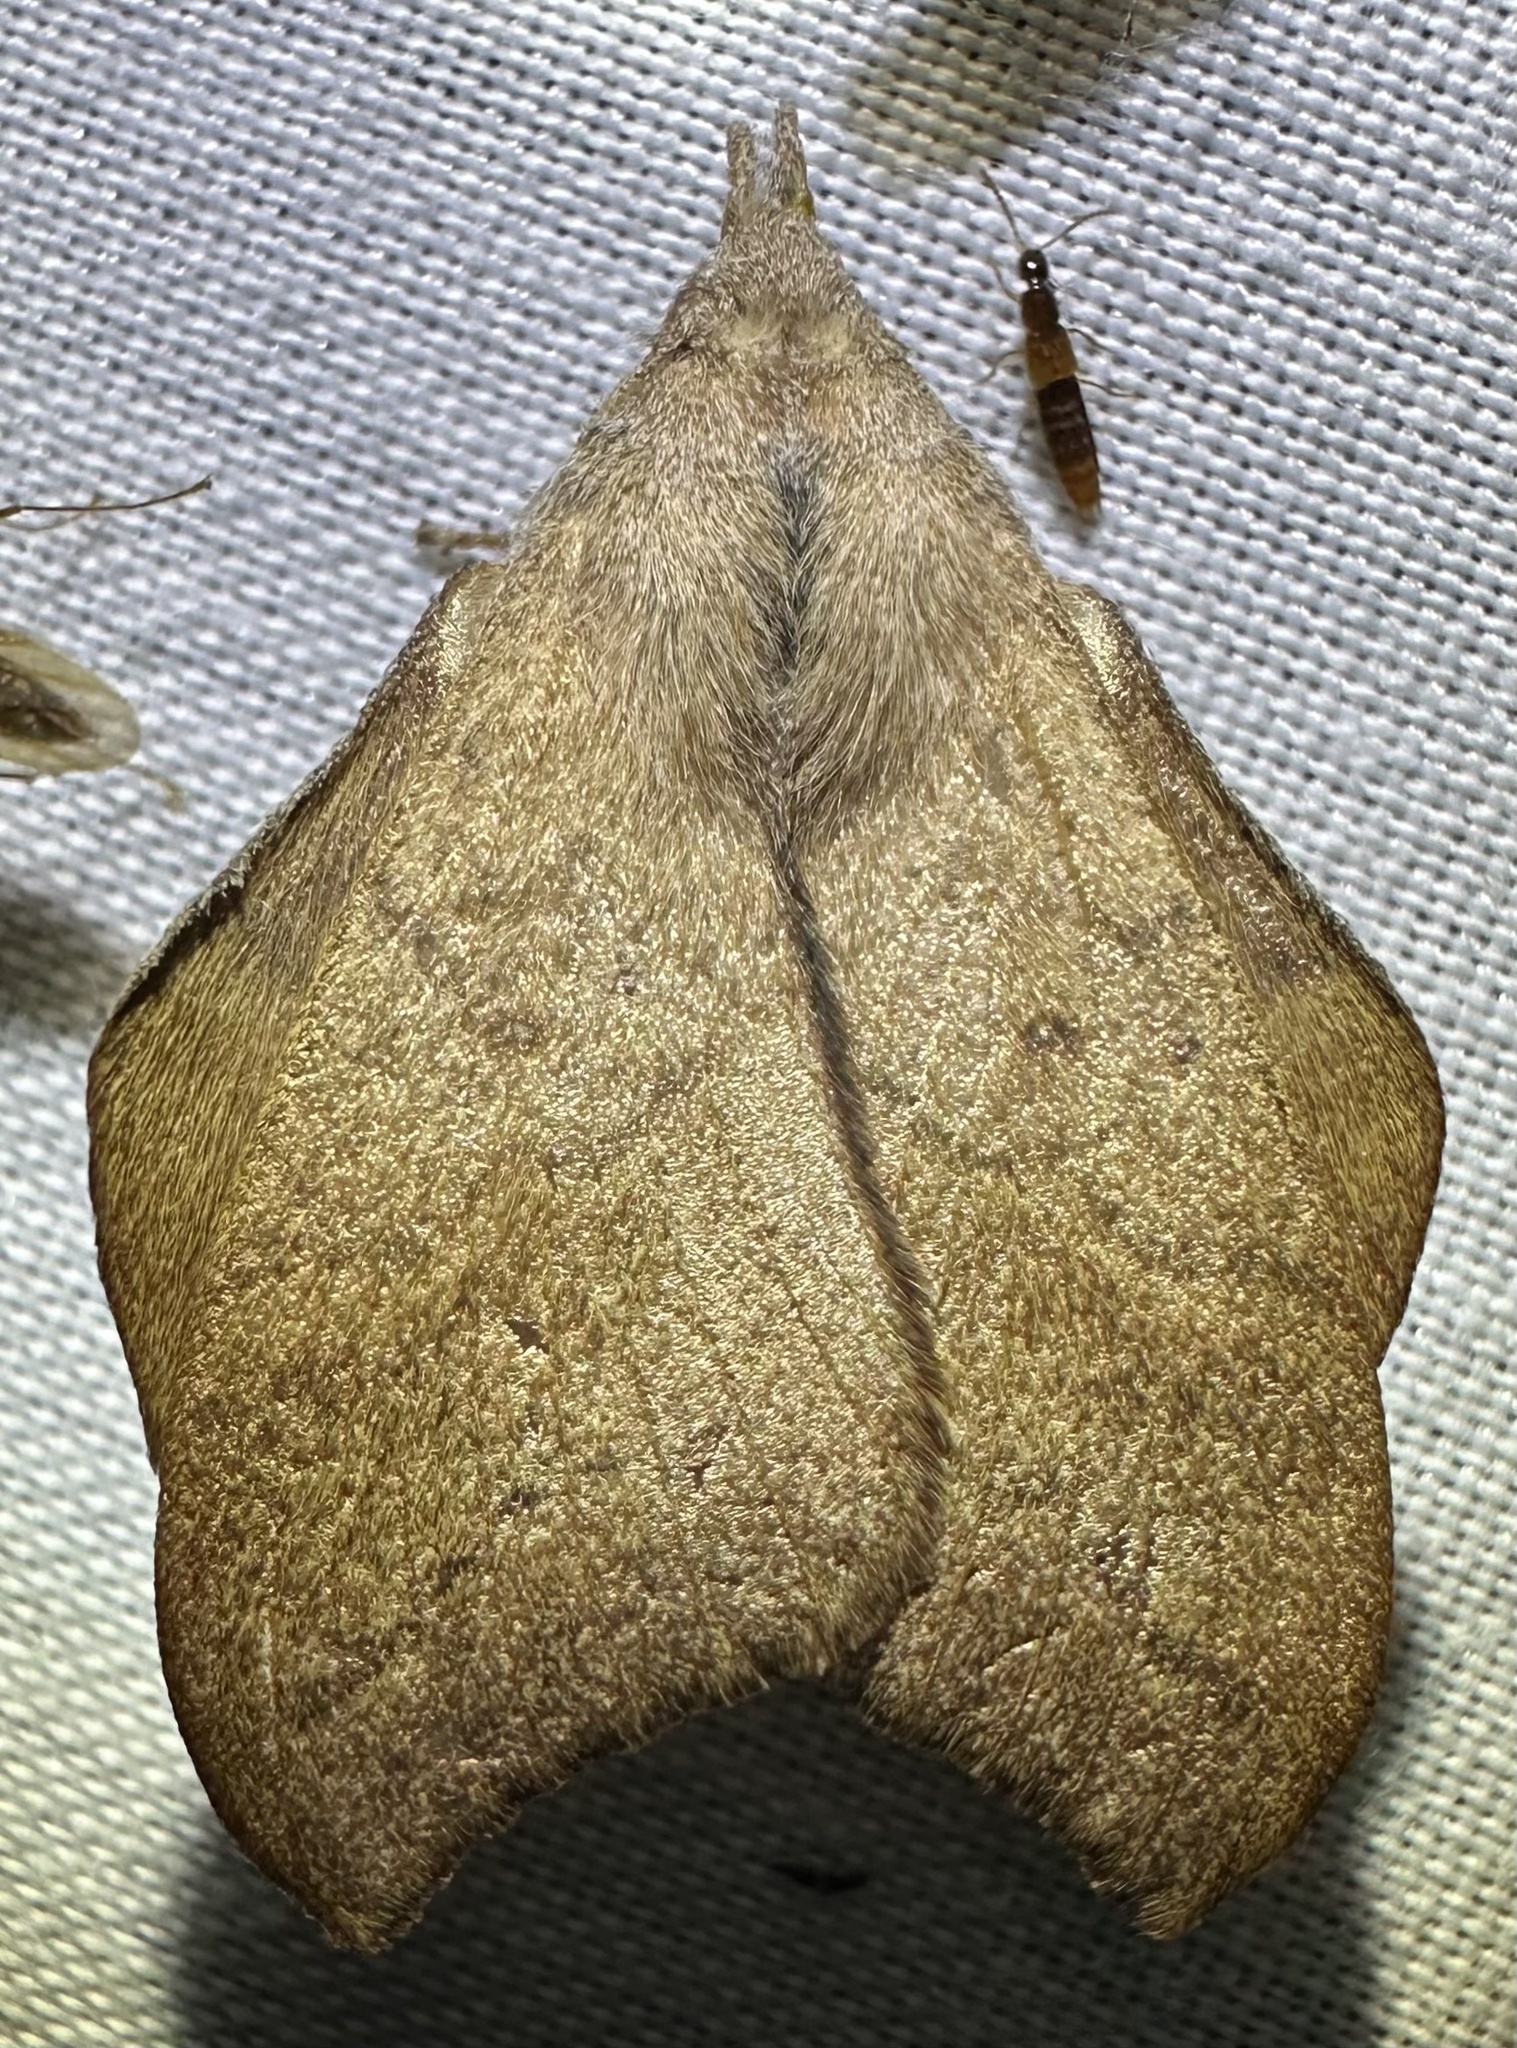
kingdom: Animalia
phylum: Arthropoda
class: Insecta
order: Lepidoptera
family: Lasiocampidae
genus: Leipoxais
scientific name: Leipoxais peraffinis
